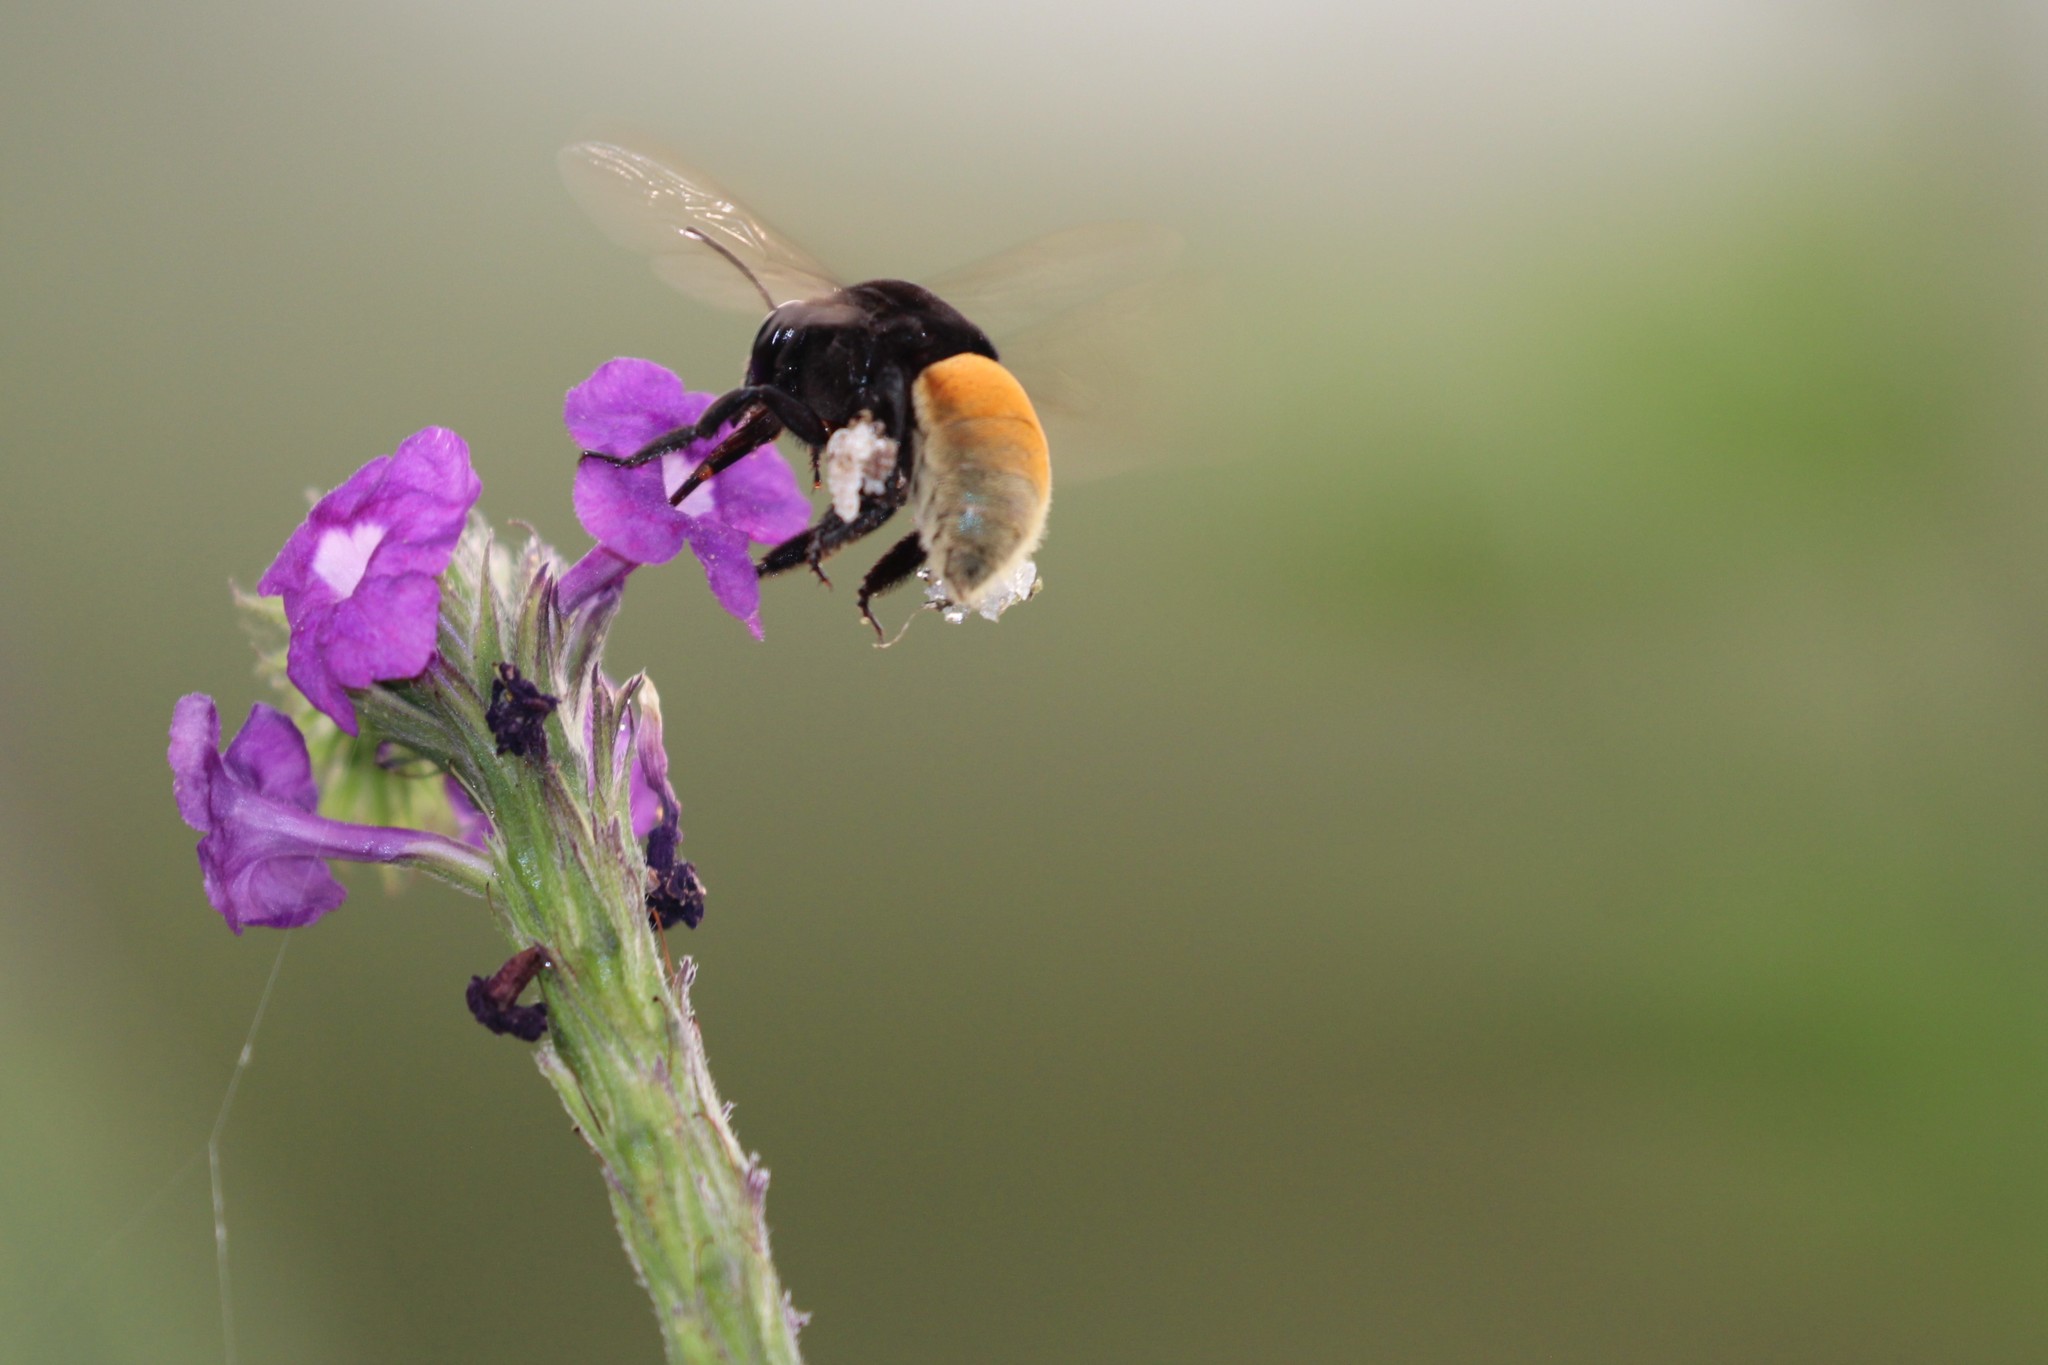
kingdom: Animalia
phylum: Arthropoda
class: Insecta
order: Hymenoptera
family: Apidae
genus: Eulaema
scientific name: Eulaema polychroma
